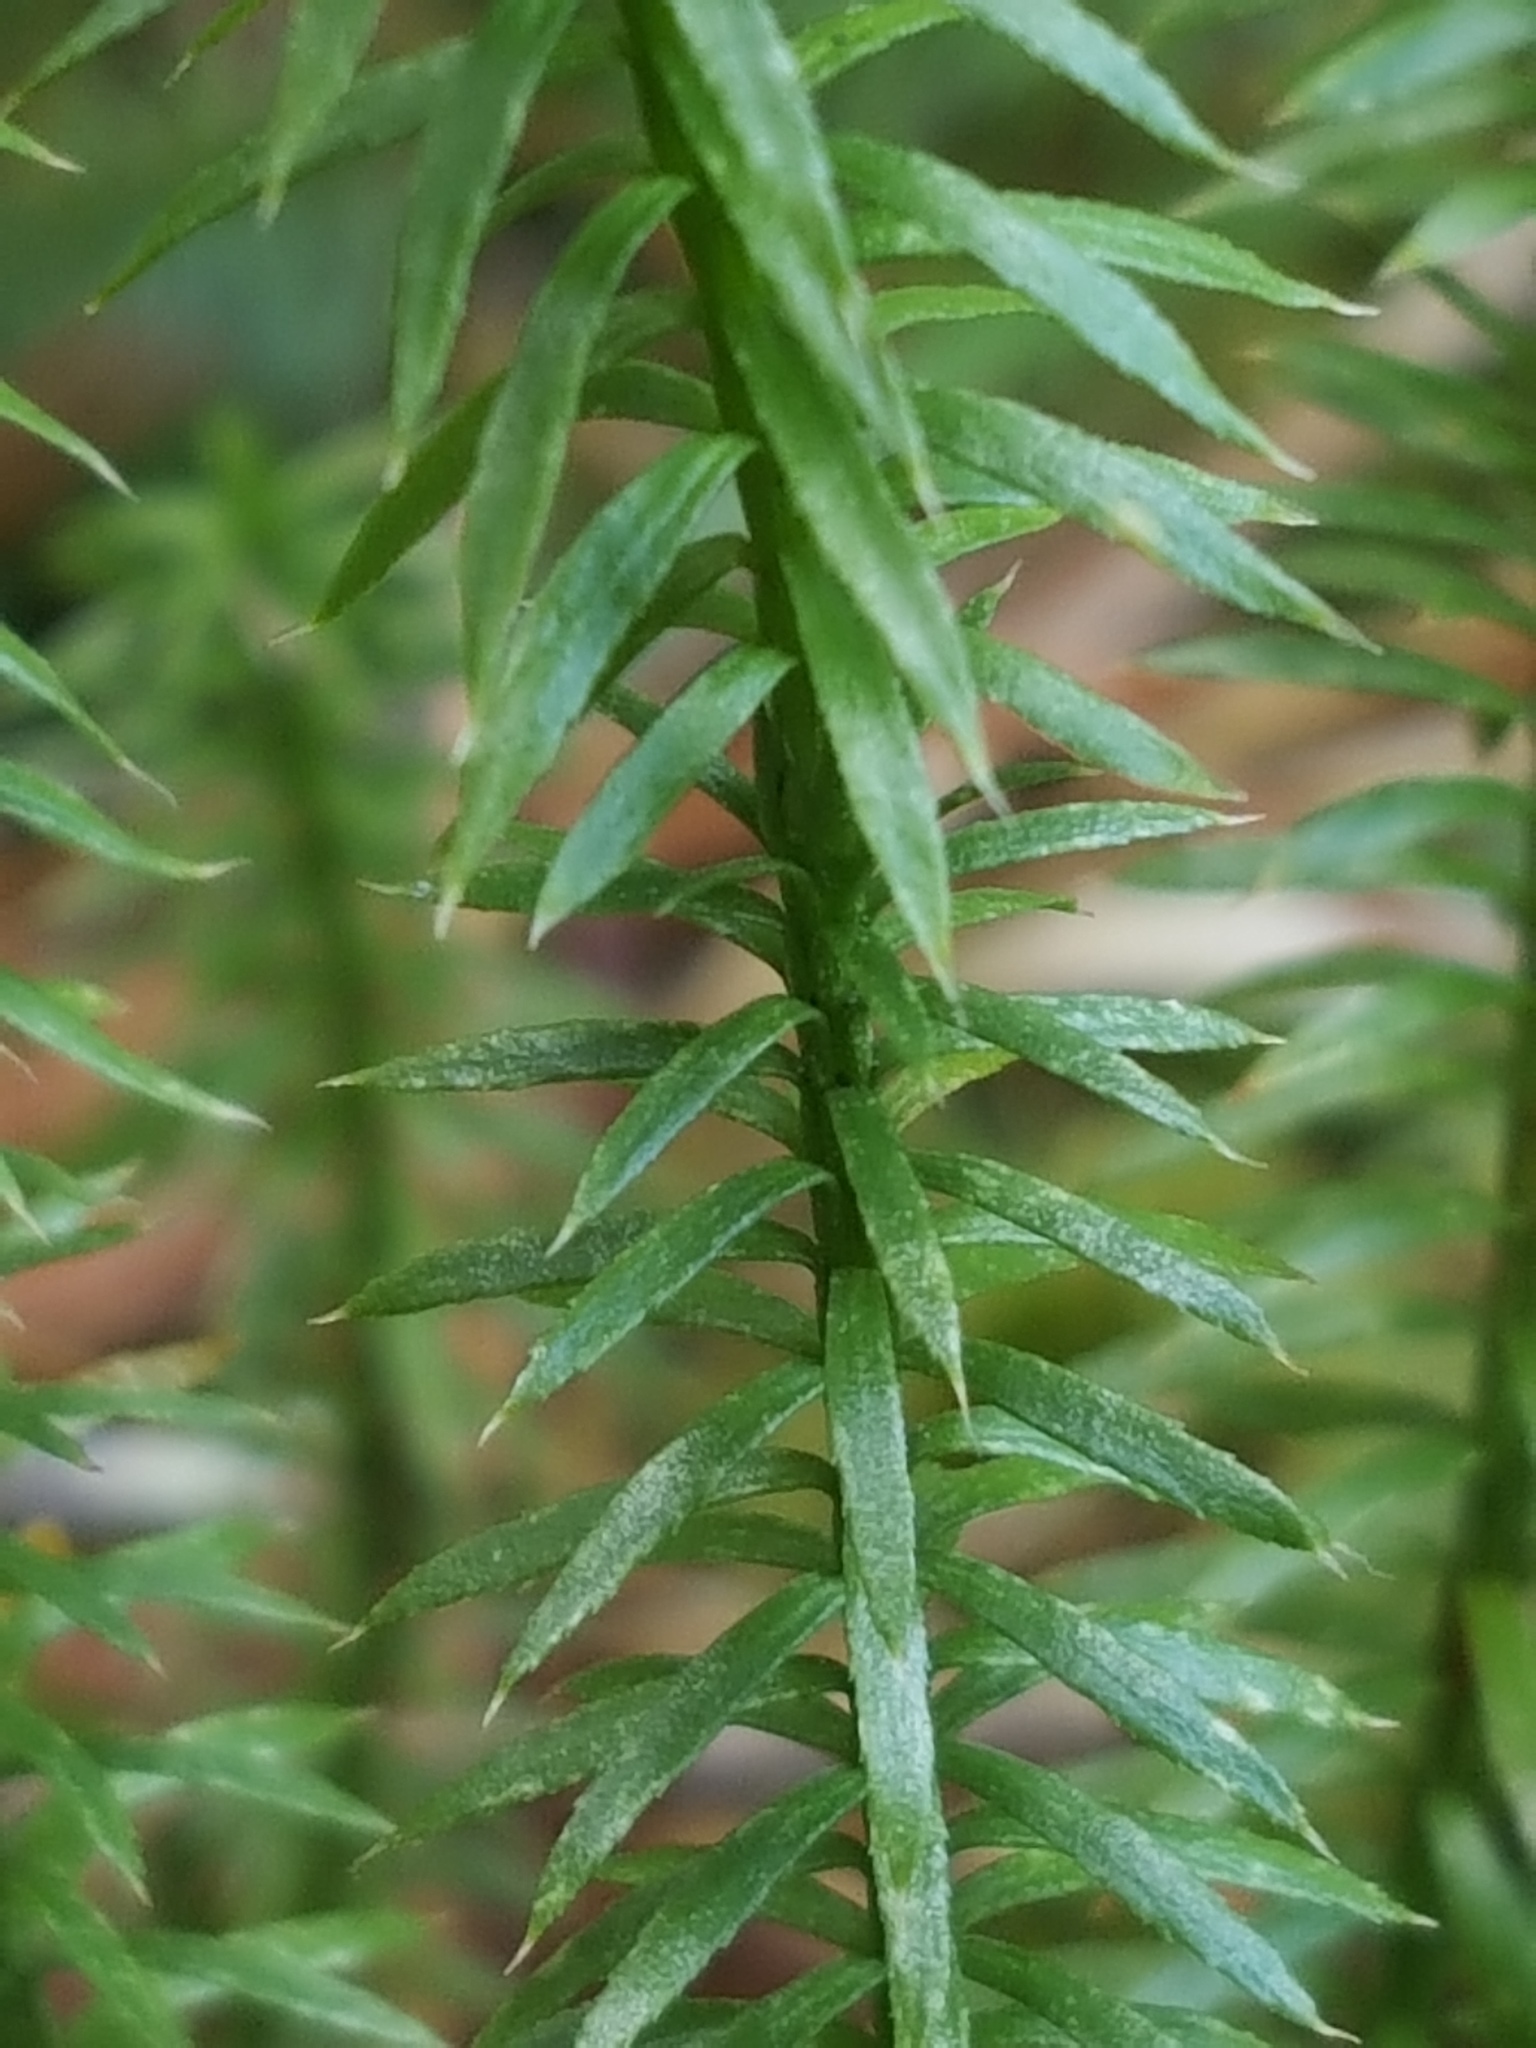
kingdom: Plantae
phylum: Tracheophyta
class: Lycopodiopsida
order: Lycopodiales
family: Lycopodiaceae
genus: Spinulum
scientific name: Spinulum annotinum
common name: Interrupted club-moss
